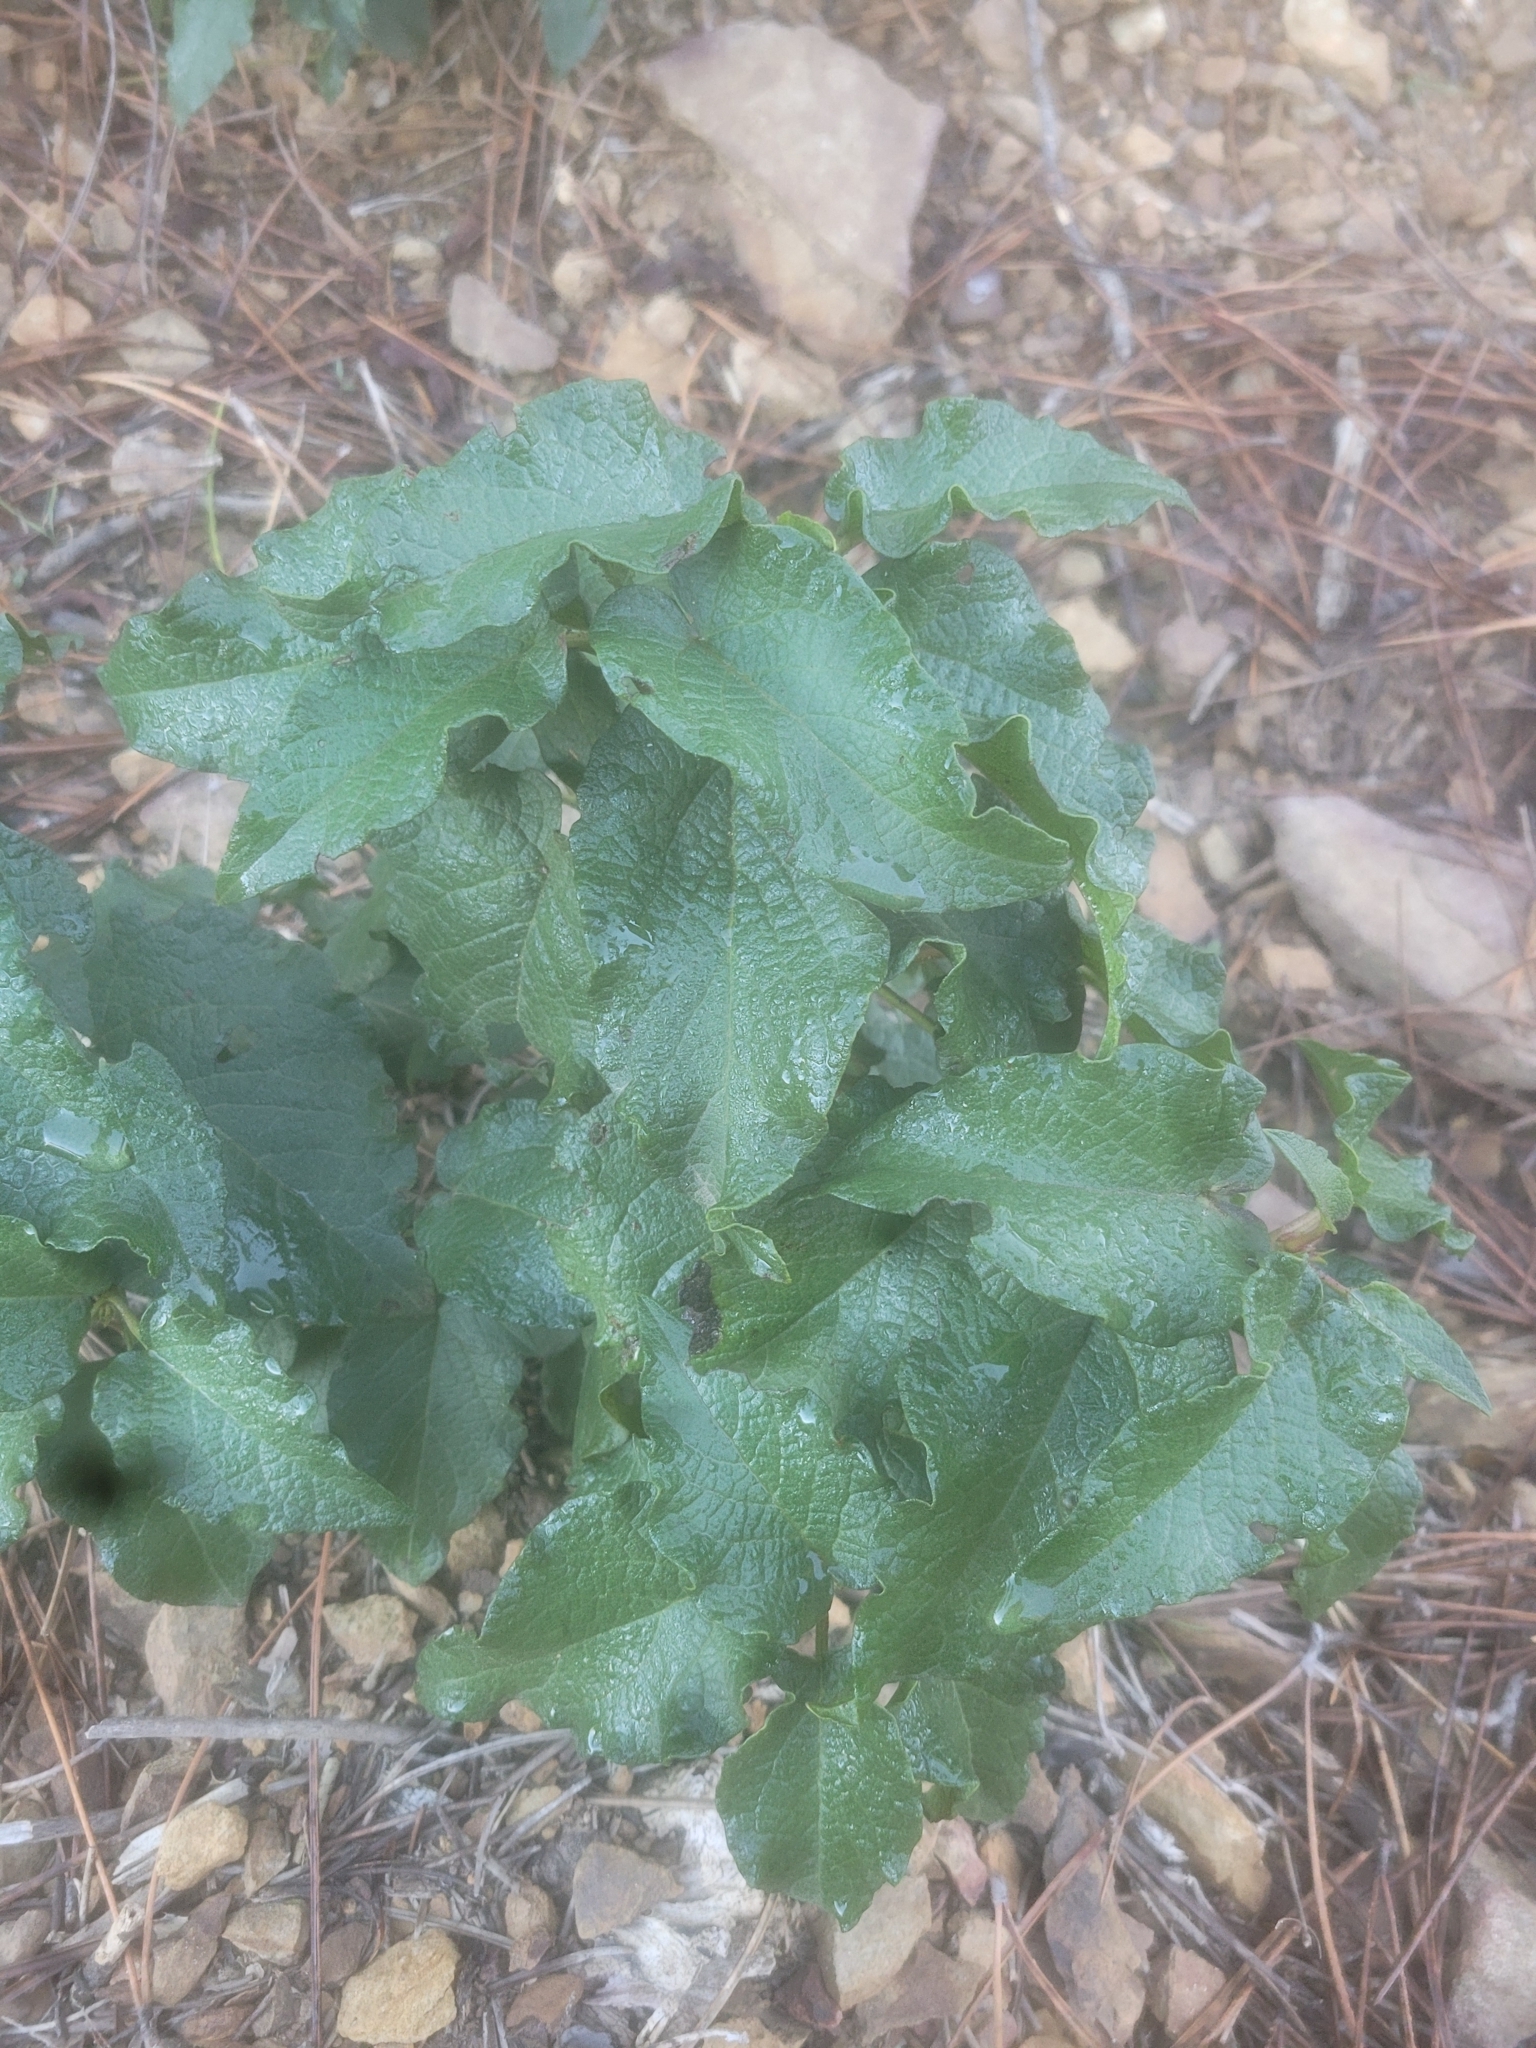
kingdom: Plantae
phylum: Tracheophyta
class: Magnoliopsida
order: Malvales
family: Cistaceae
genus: Cistus
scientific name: Cistus populifolius
